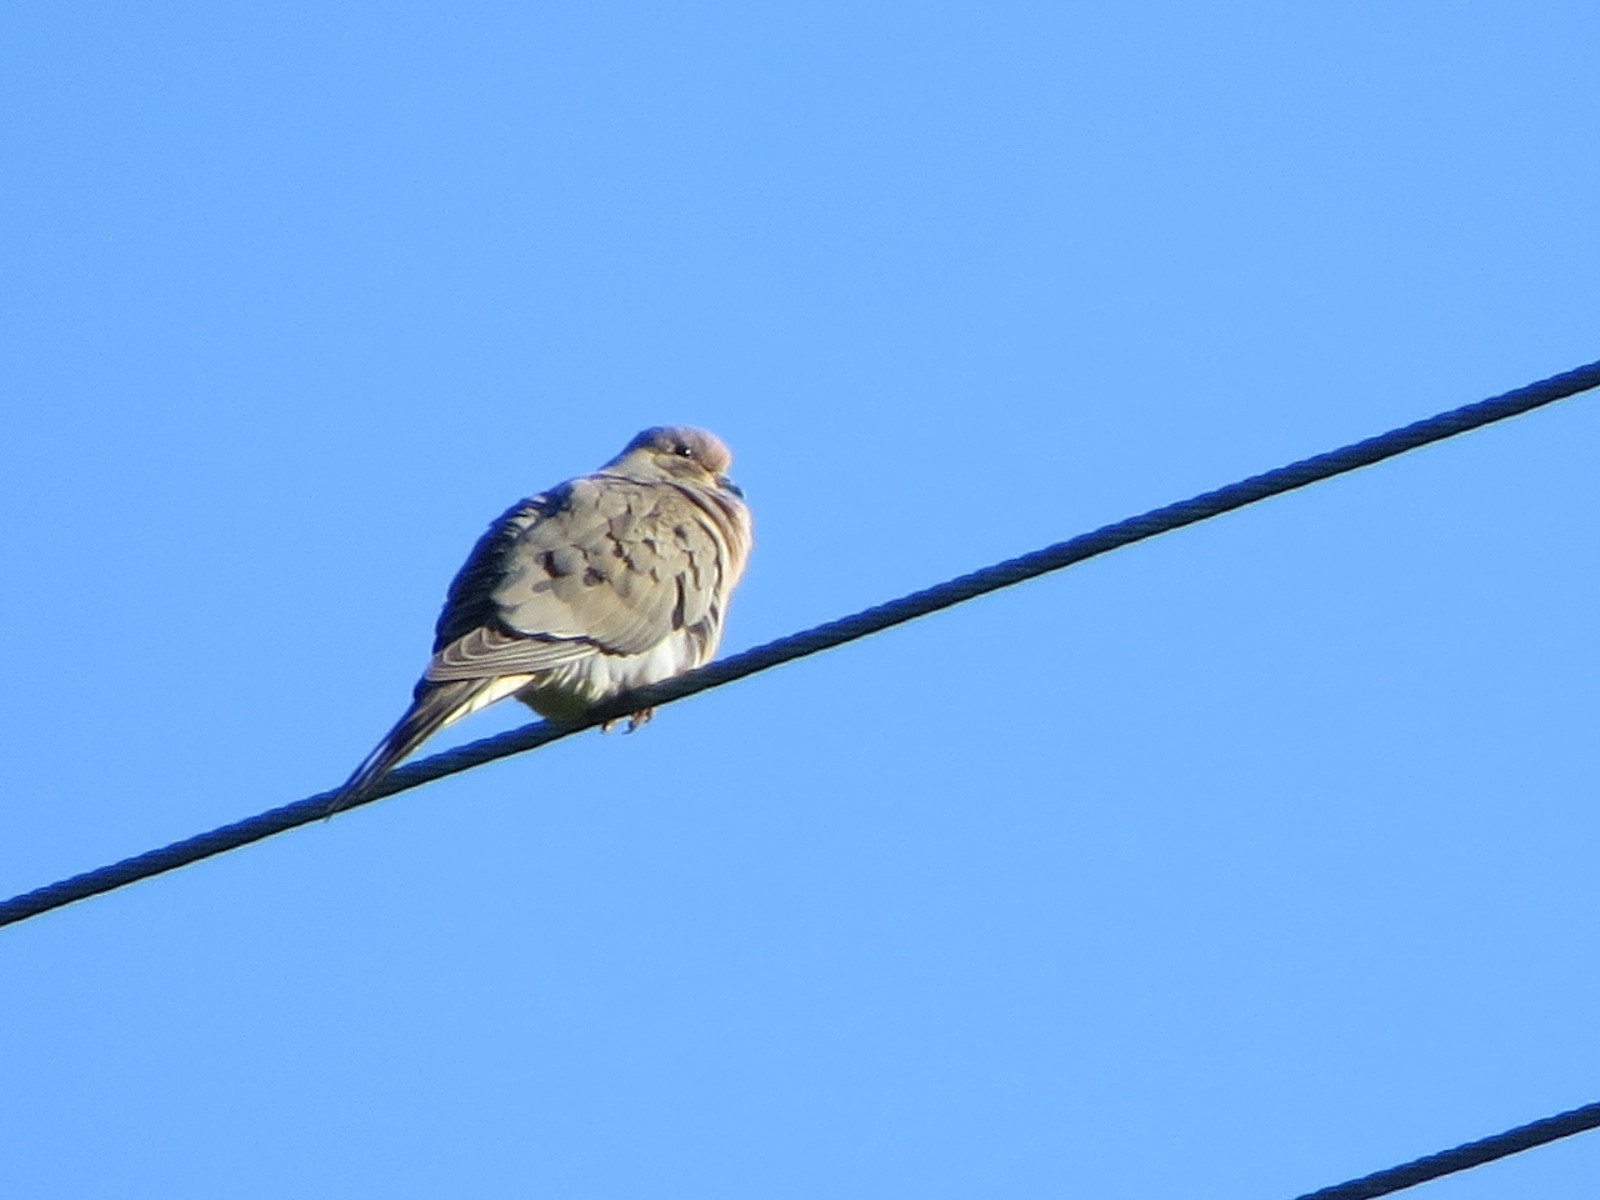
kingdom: Animalia
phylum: Chordata
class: Aves
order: Columbiformes
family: Columbidae
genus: Zenaida
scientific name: Zenaida macroura
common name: Mourning dove
